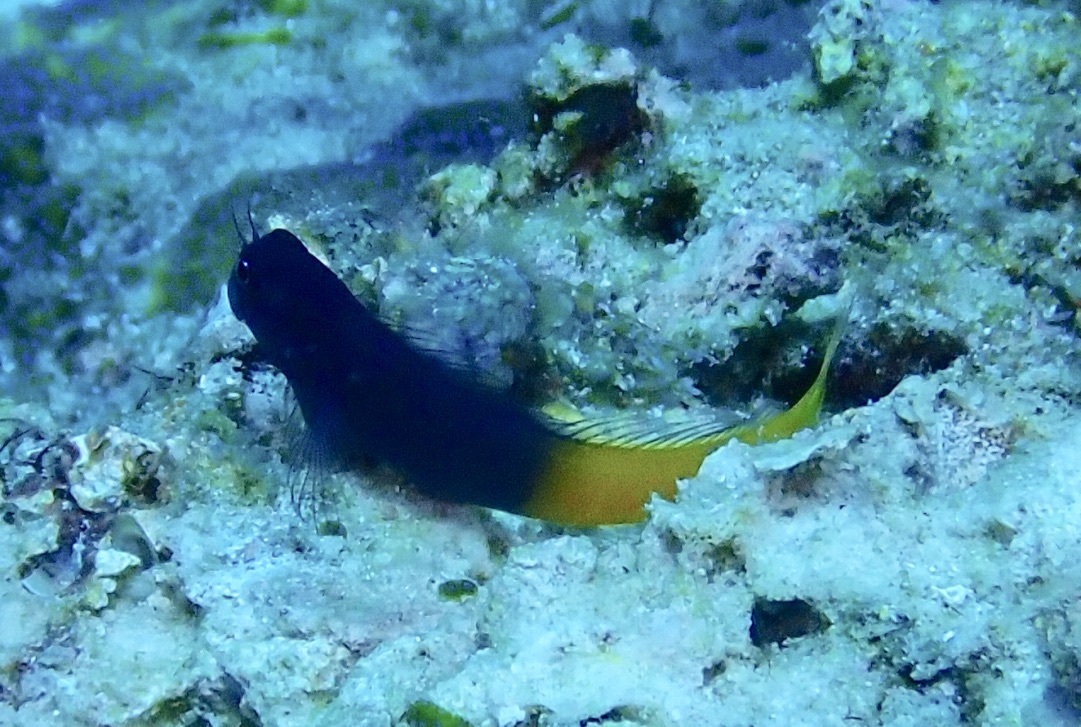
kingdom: Animalia
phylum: Chordata
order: Perciformes
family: Blenniidae
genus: Ecsenius
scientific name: Ecsenius bicolor
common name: Bicolor blenny
